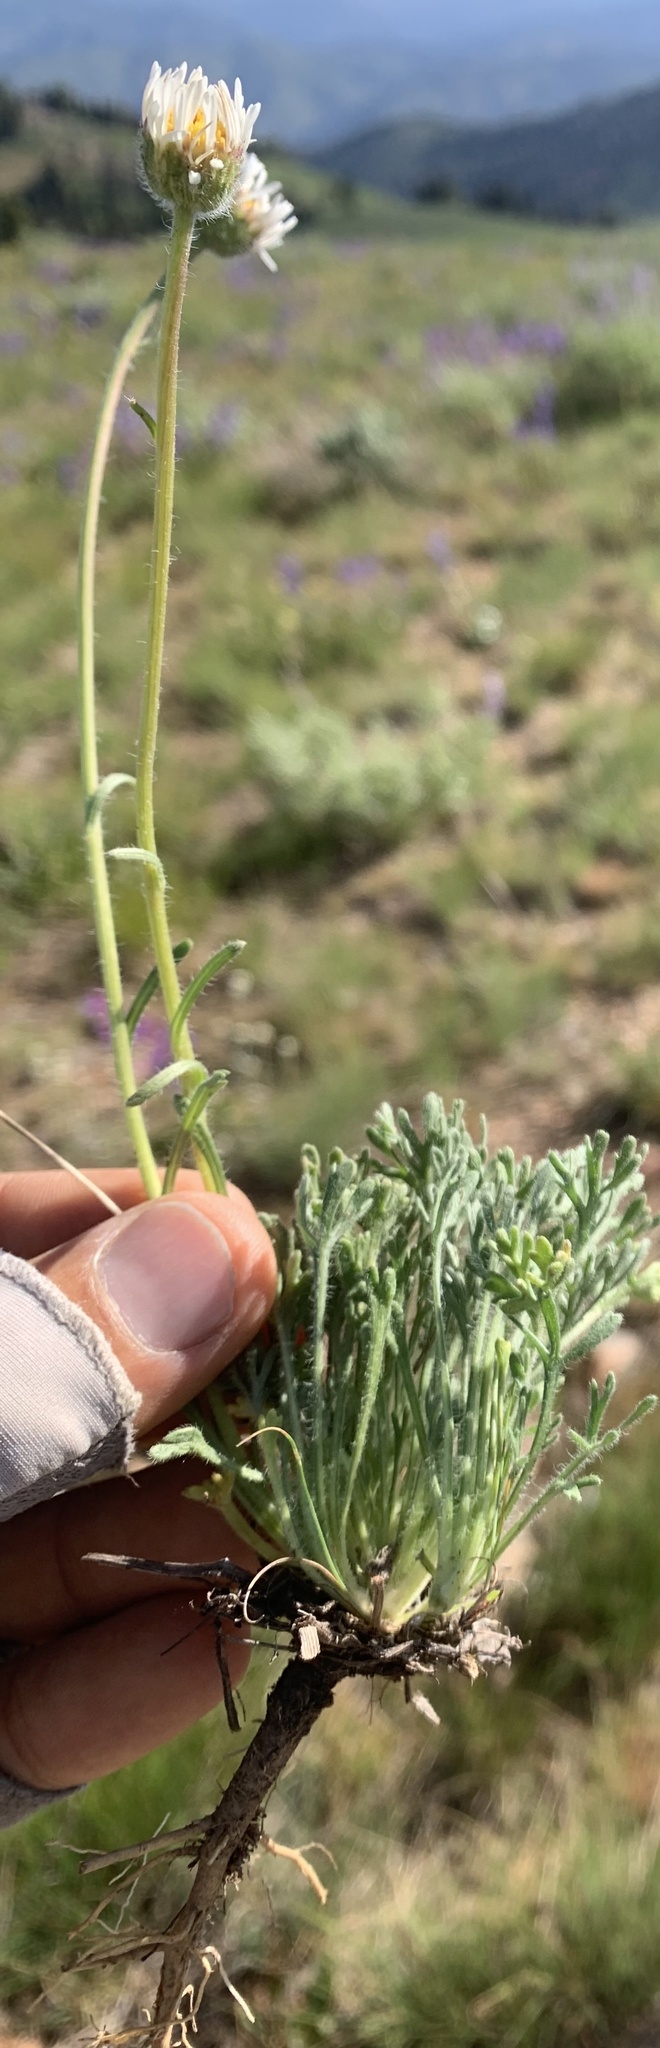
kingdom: Plantae
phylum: Tracheophyta
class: Magnoliopsida
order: Asterales
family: Asteraceae
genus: Erigeron
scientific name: Erigeron compositus
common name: Dwarf mountain fleabane
